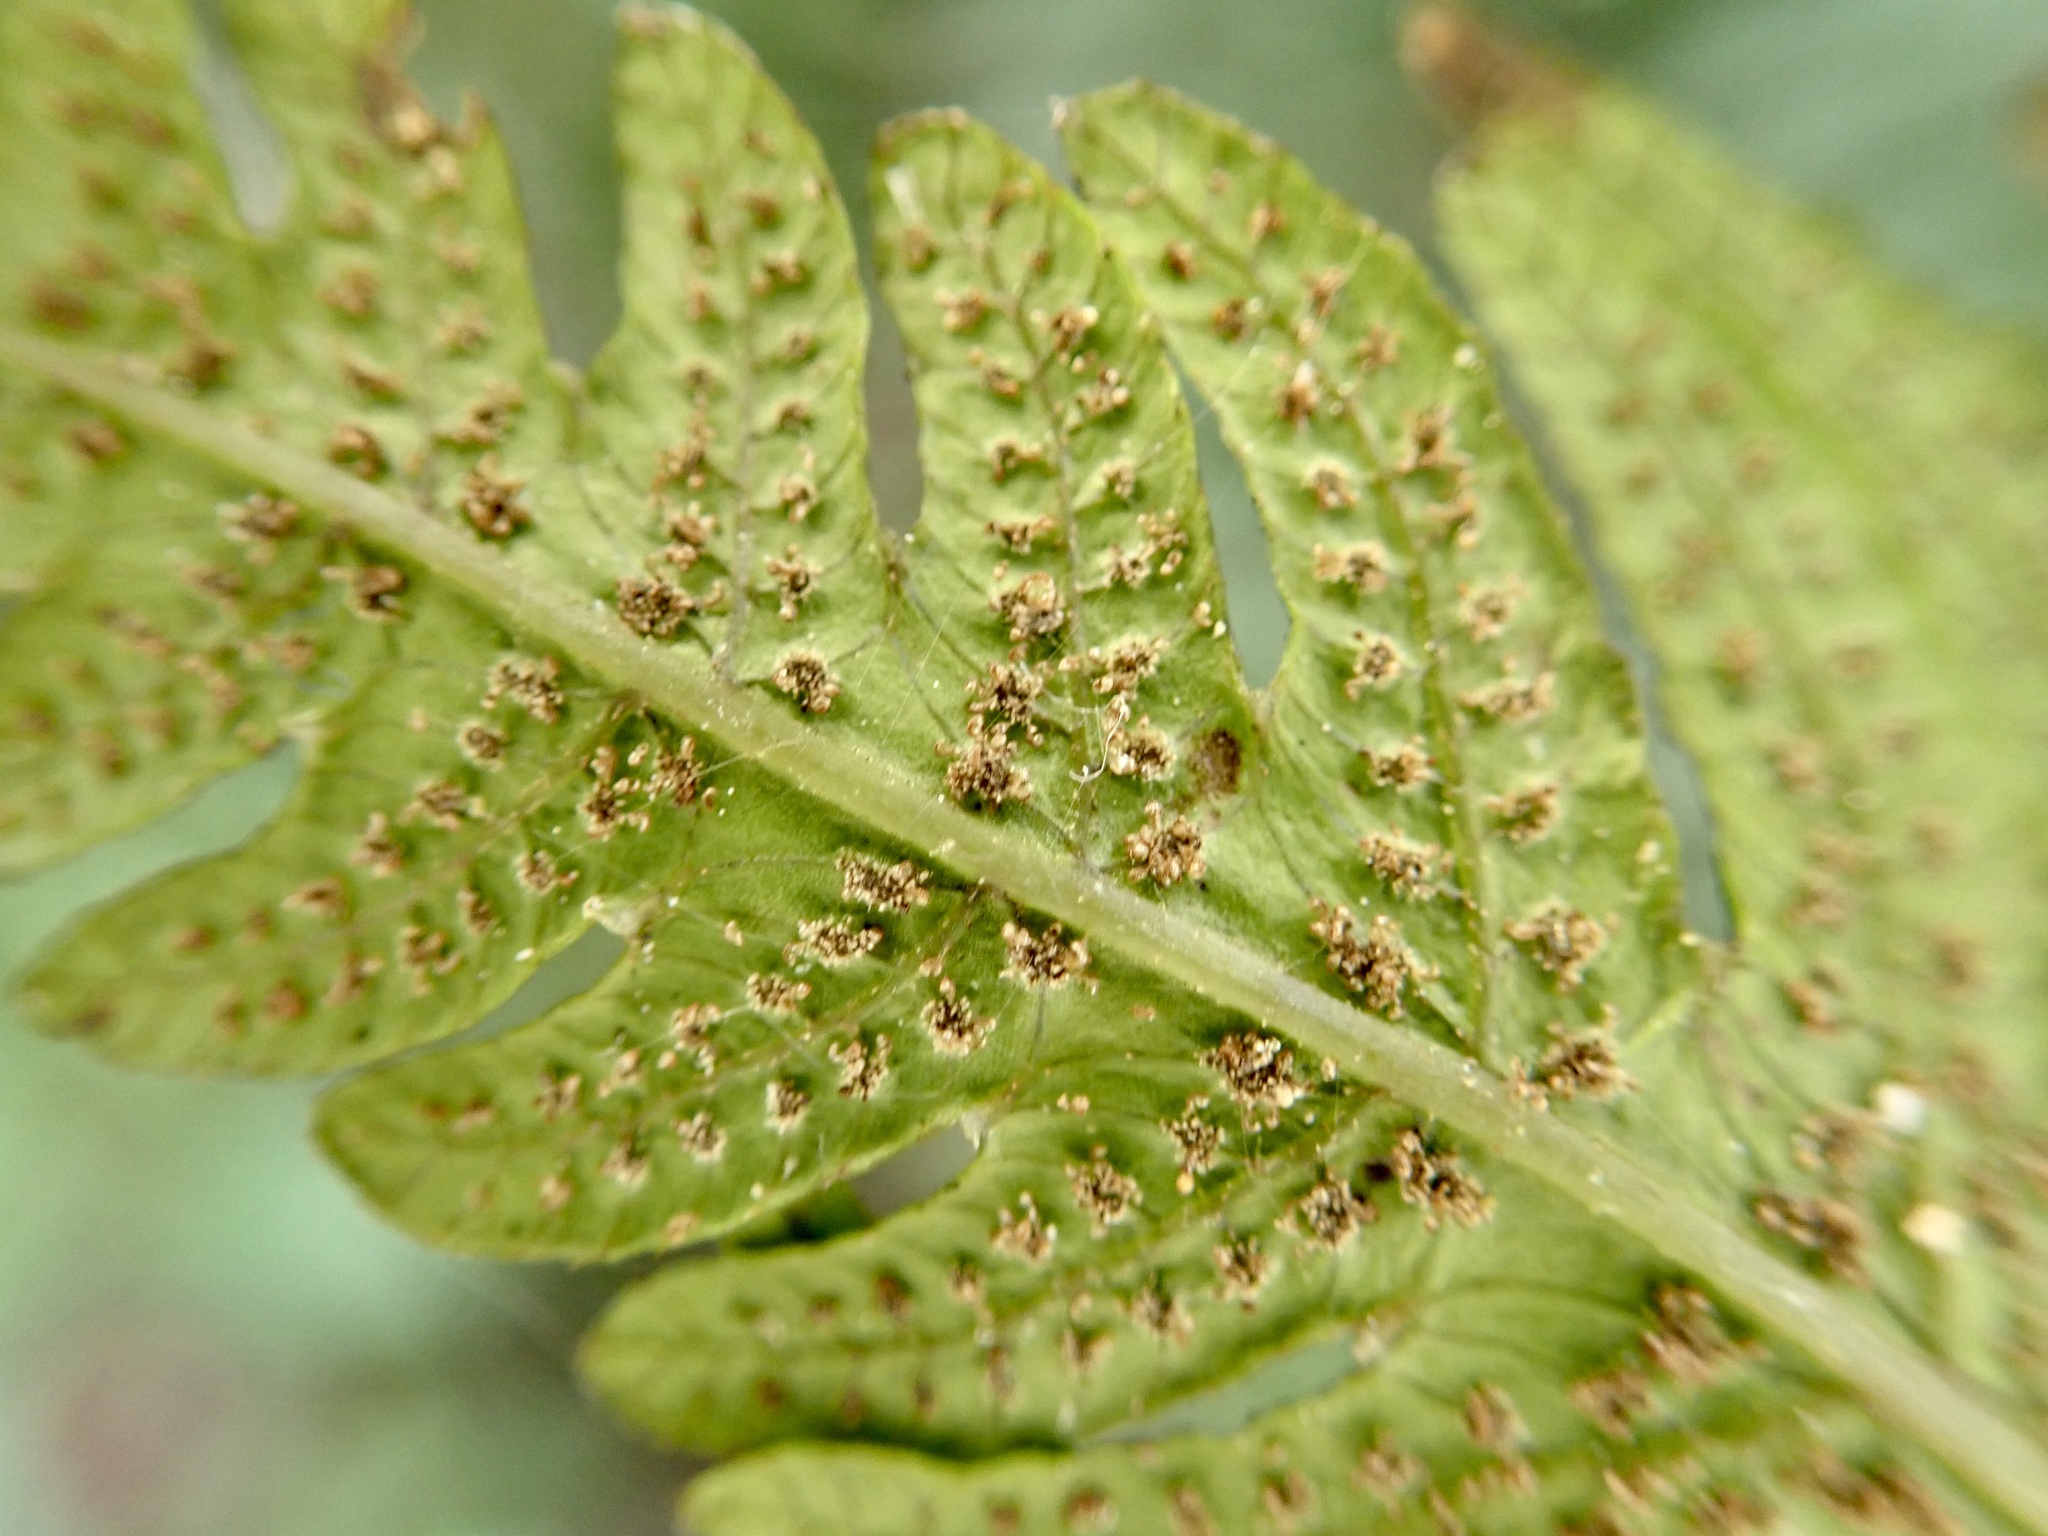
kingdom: Plantae
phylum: Tracheophyta
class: Polypodiopsida
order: Polypodiales
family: Thelypteridaceae
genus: Pakau
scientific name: Pakau pennigera
